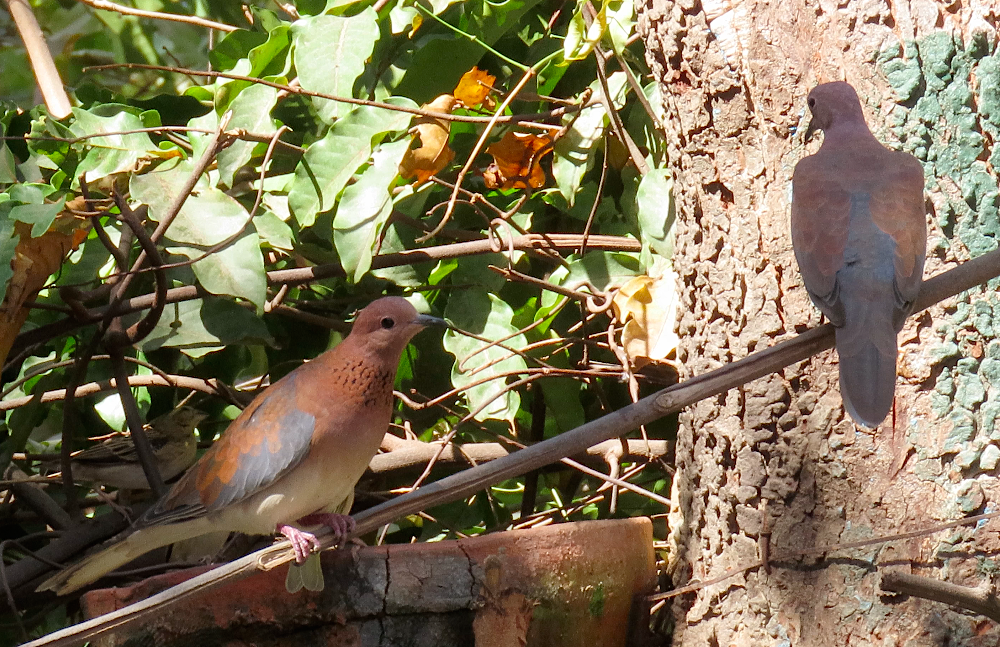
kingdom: Animalia
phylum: Chordata
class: Aves
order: Columbiformes
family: Columbidae
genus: Spilopelia
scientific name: Spilopelia senegalensis
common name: Laughing dove
